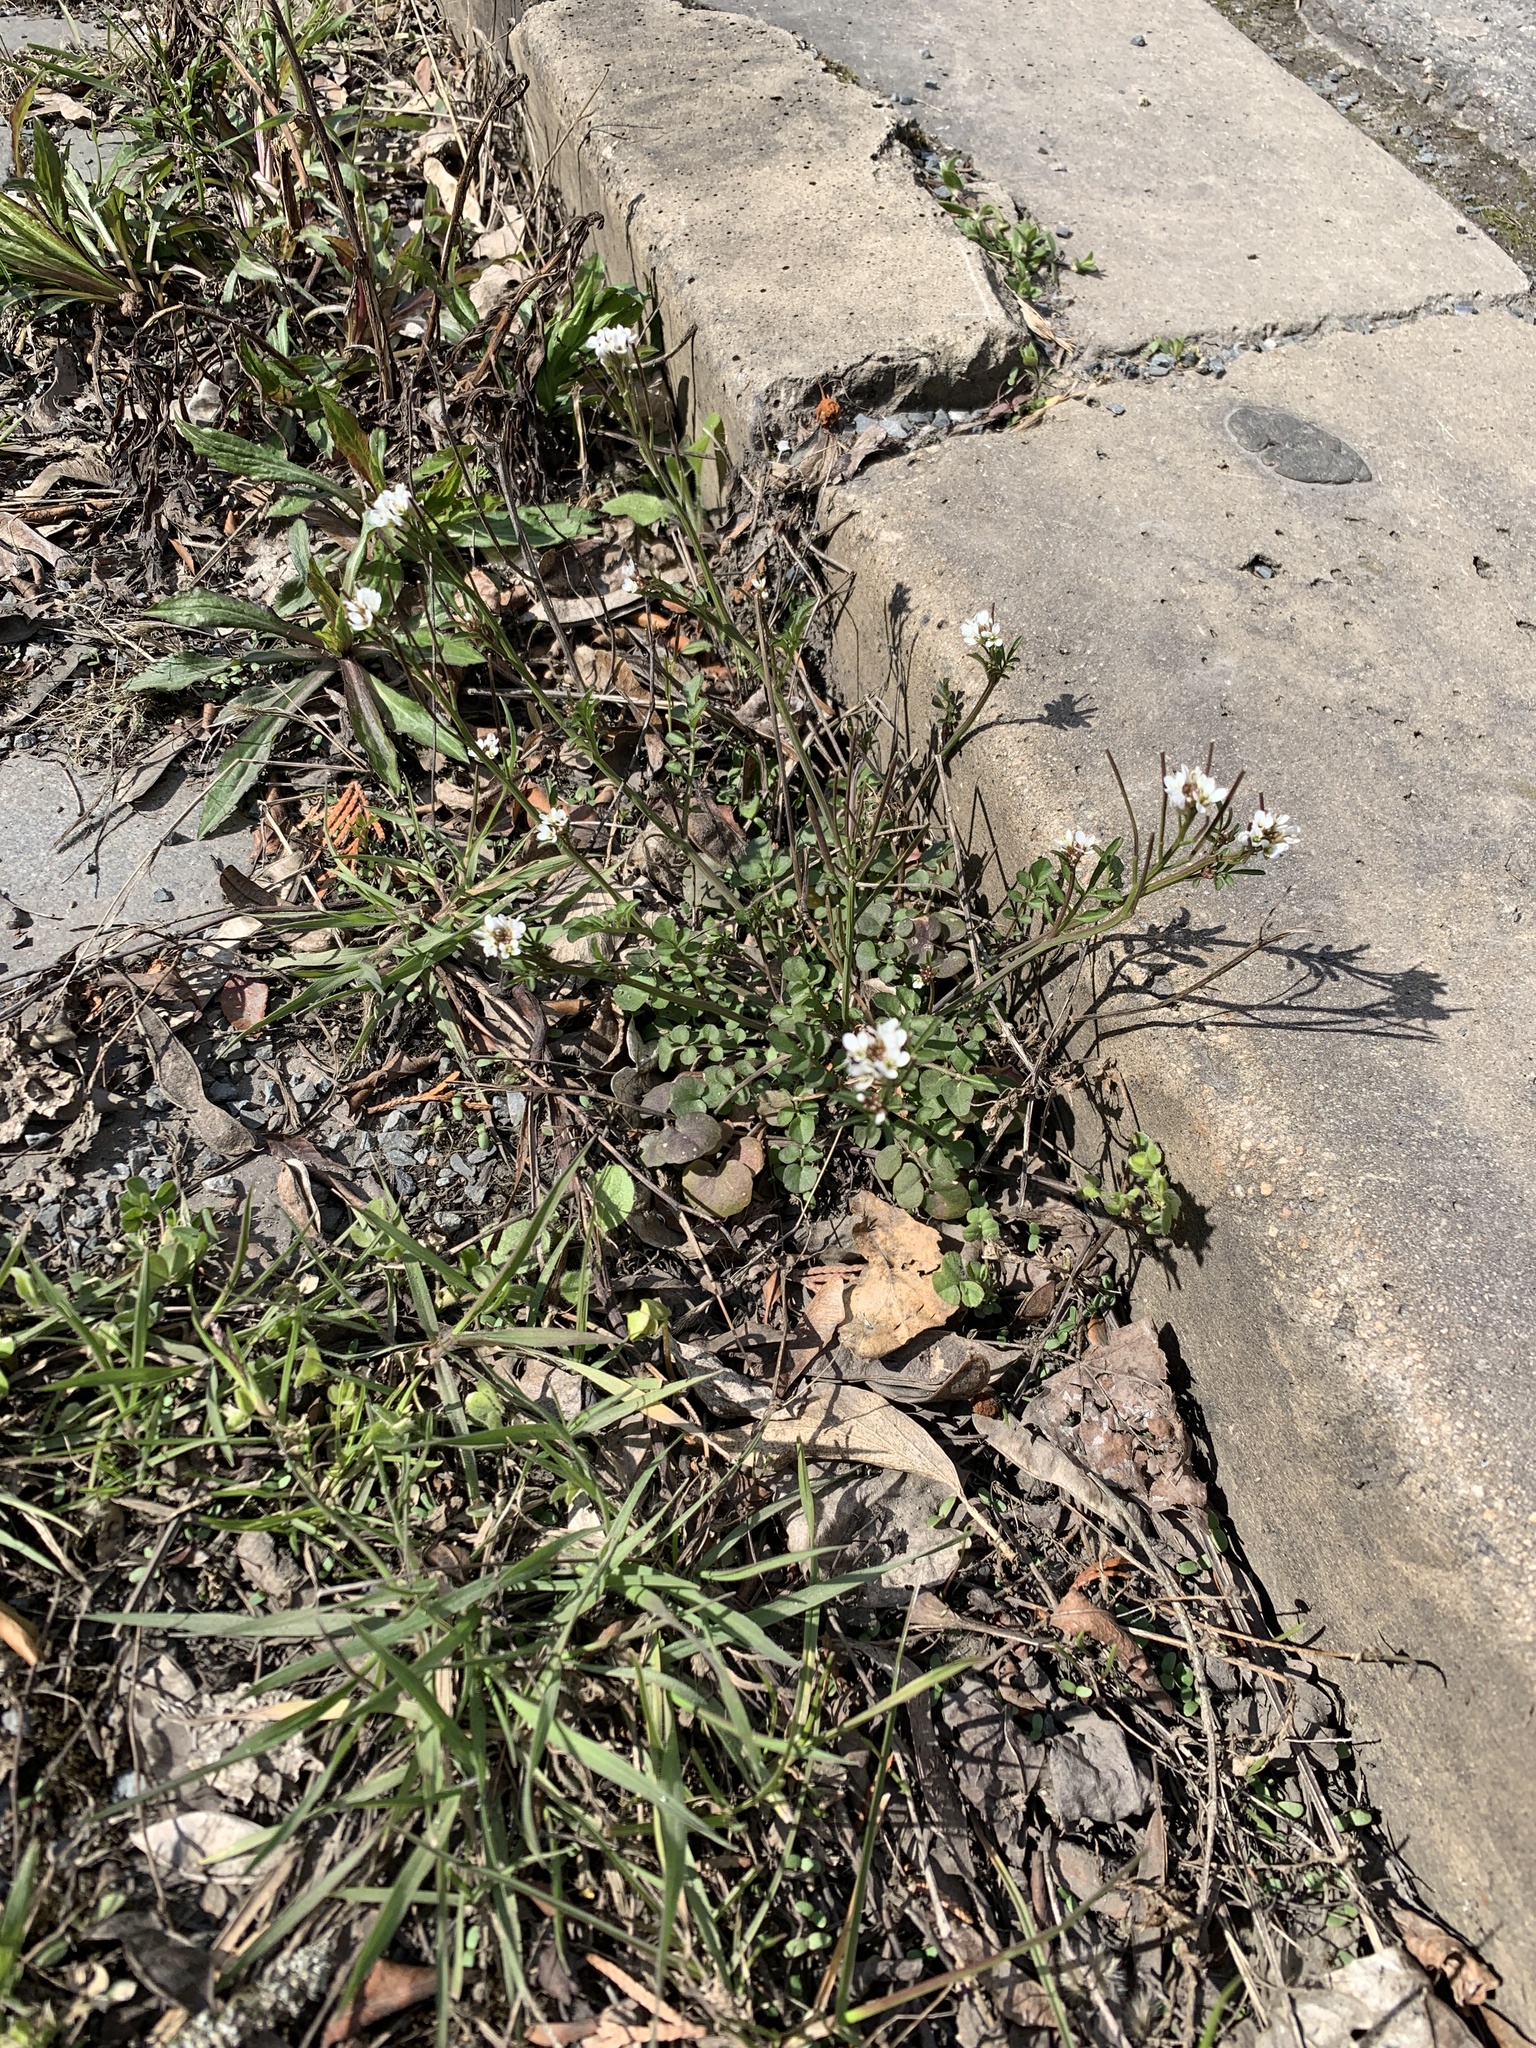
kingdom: Plantae
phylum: Tracheophyta
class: Magnoliopsida
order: Brassicales
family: Brassicaceae
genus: Cardamine
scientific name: Cardamine hirsuta
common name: Hairy bittercress
